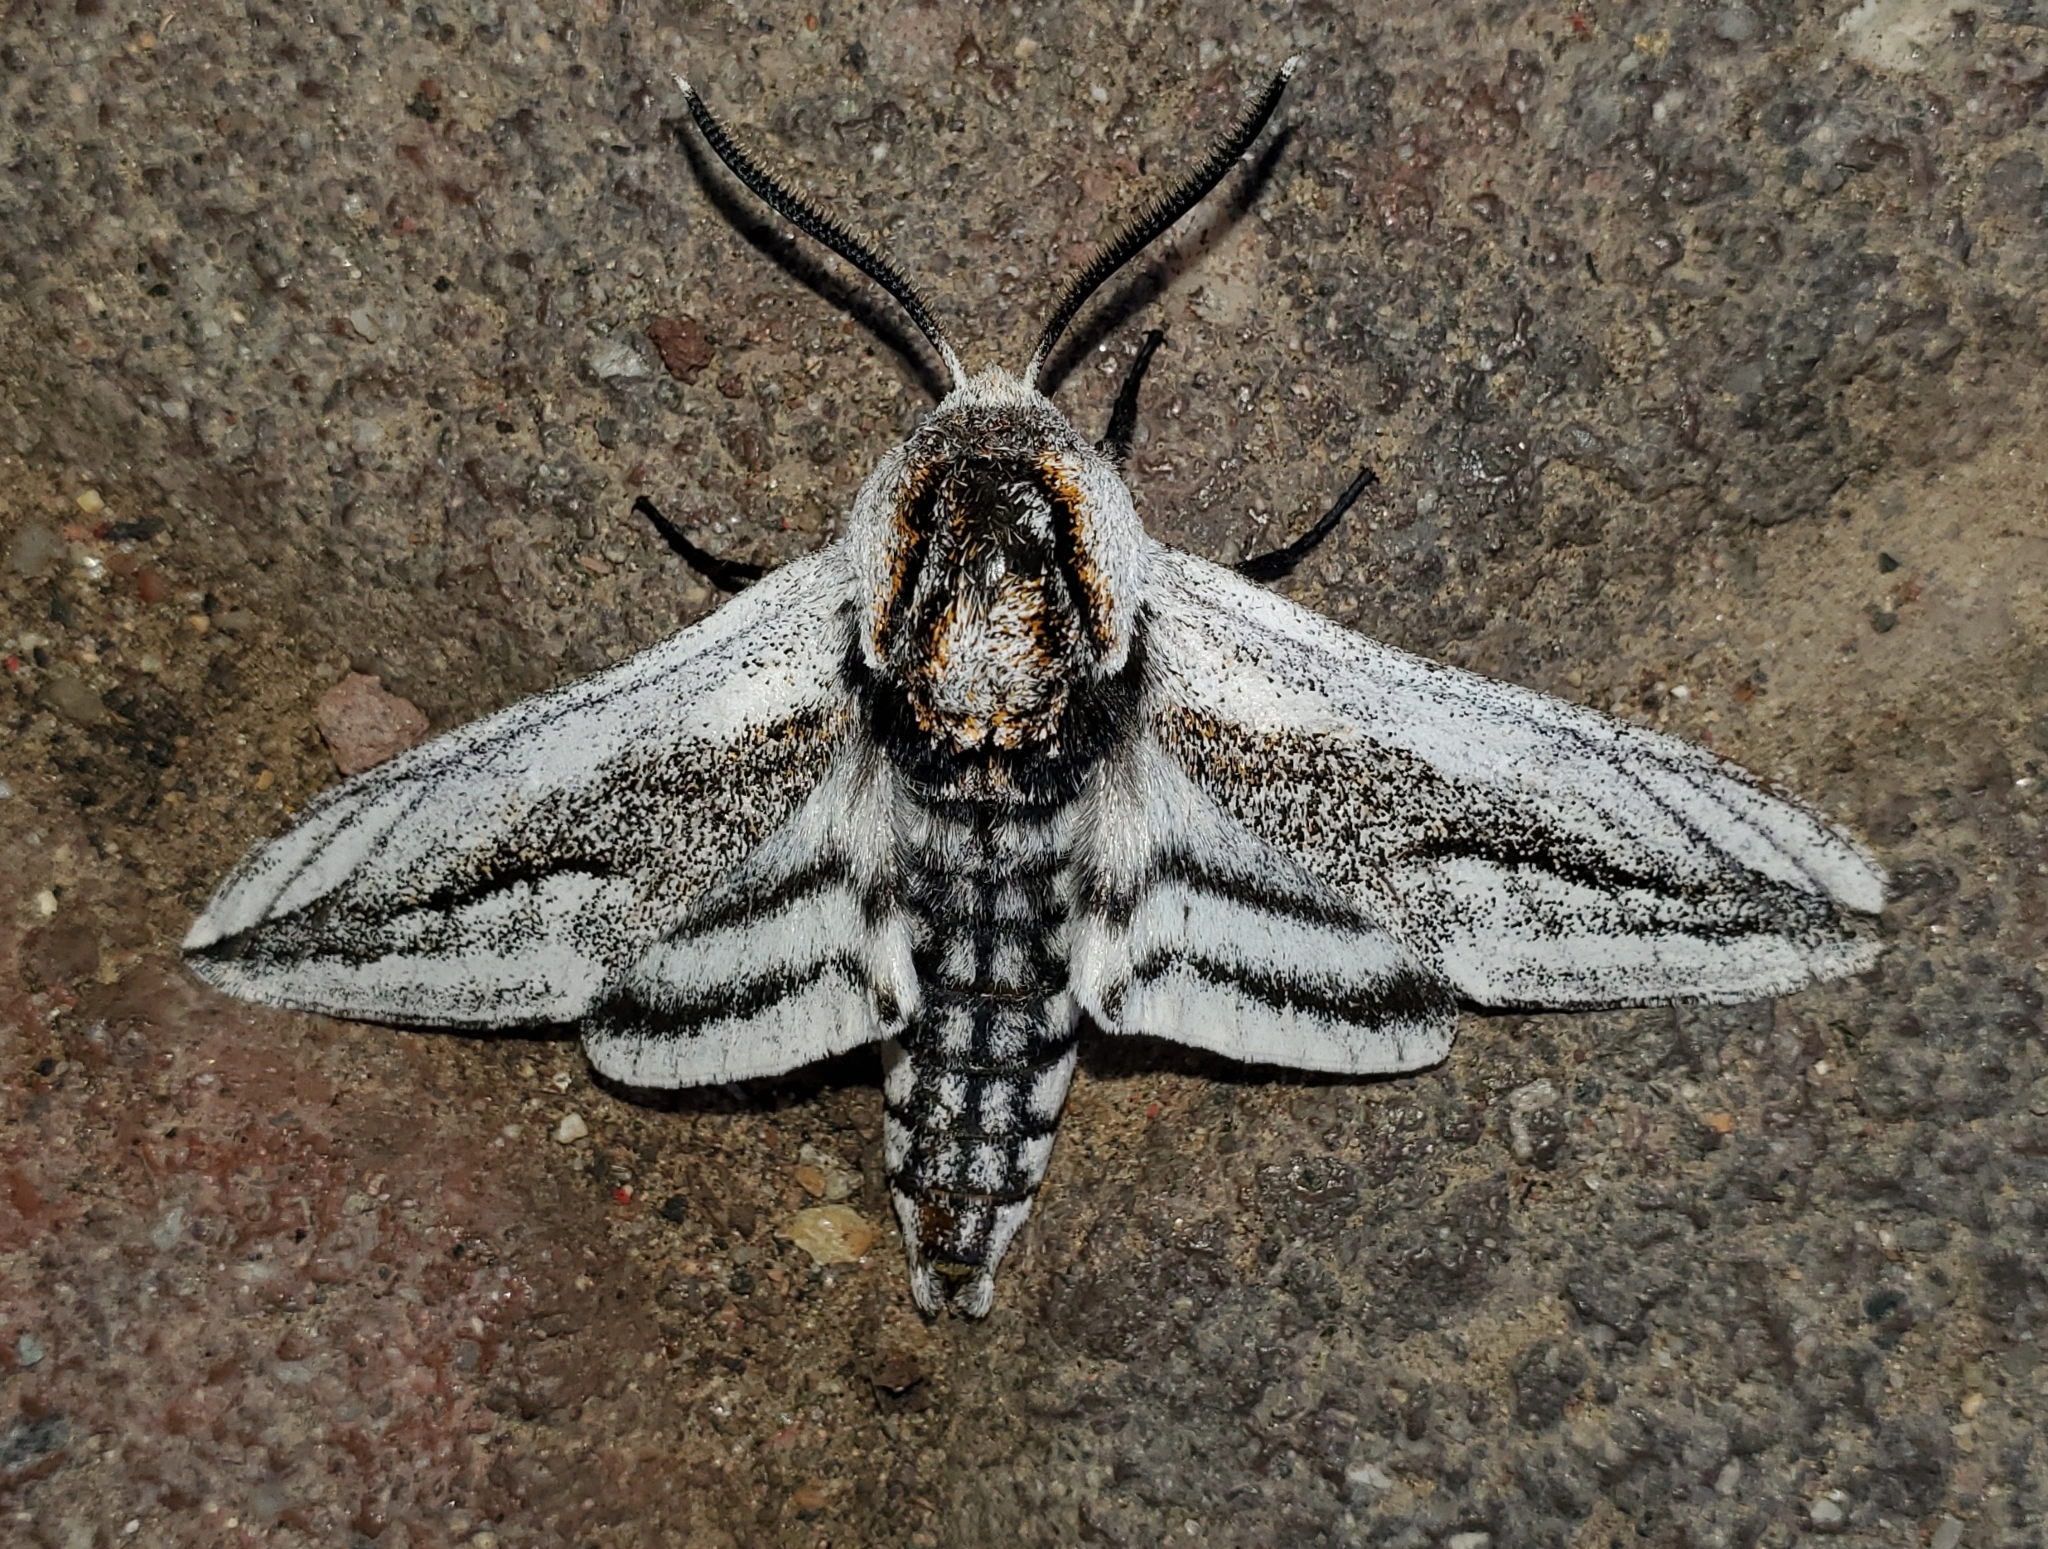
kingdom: Animalia
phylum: Arthropoda
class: Insecta
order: Lepidoptera
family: Sphingidae
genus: Sagenosoma
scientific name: Sagenosoma elsa
